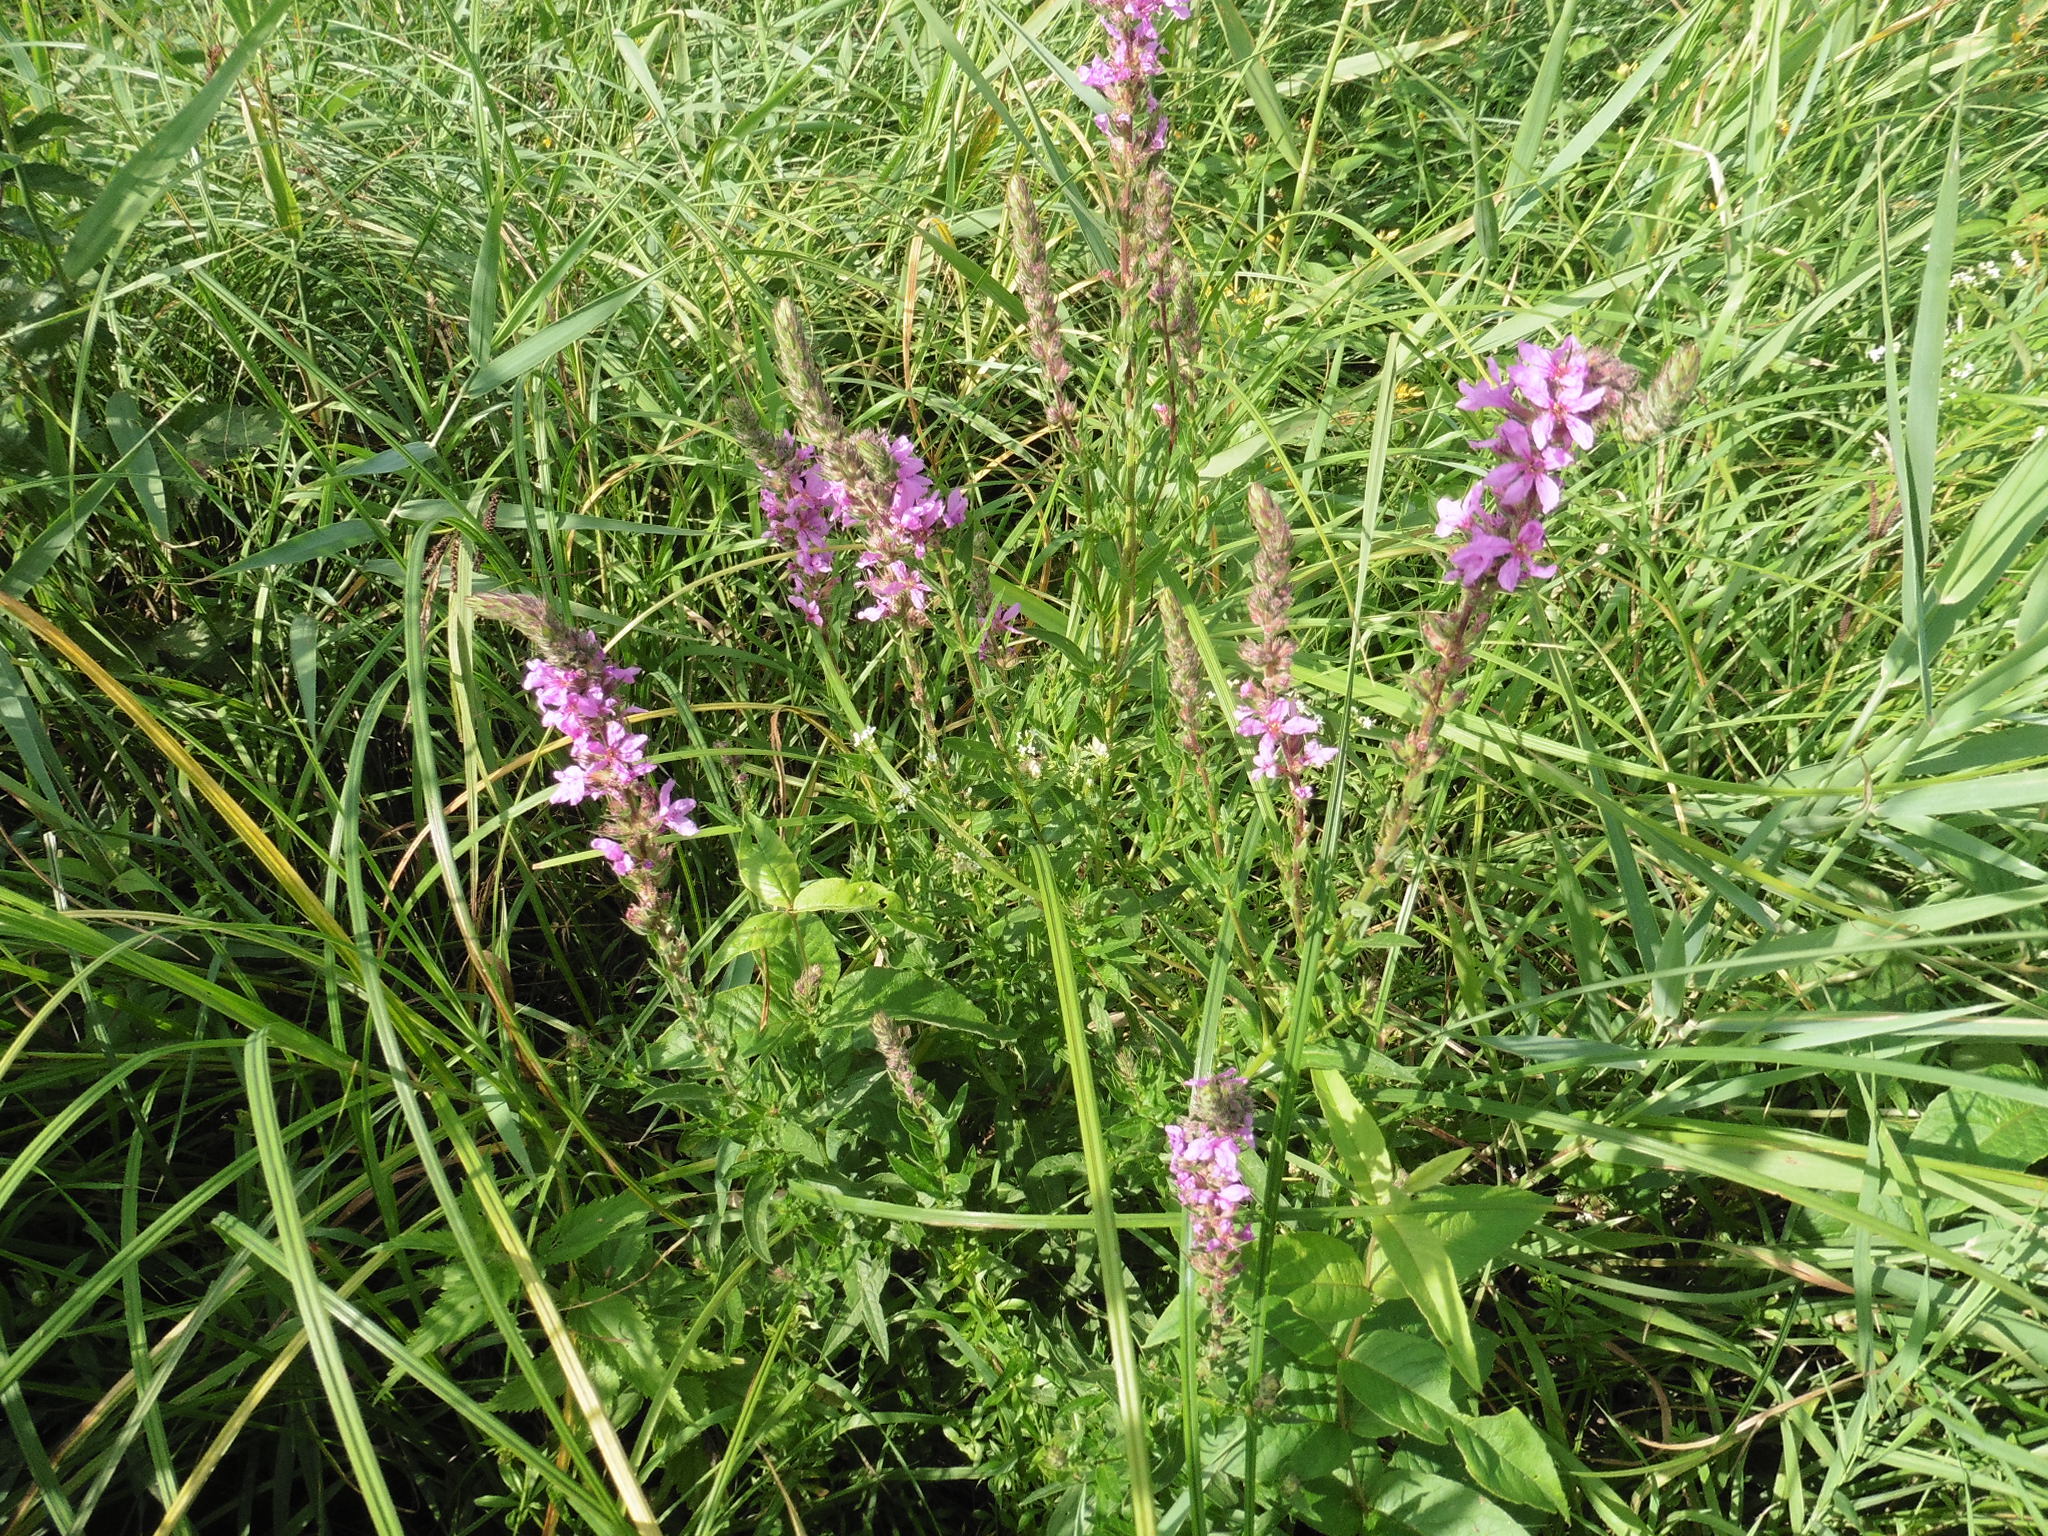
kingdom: Plantae
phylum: Tracheophyta
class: Magnoliopsida
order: Myrtales
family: Lythraceae
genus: Lythrum
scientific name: Lythrum salicaria
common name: Purple loosestrife
